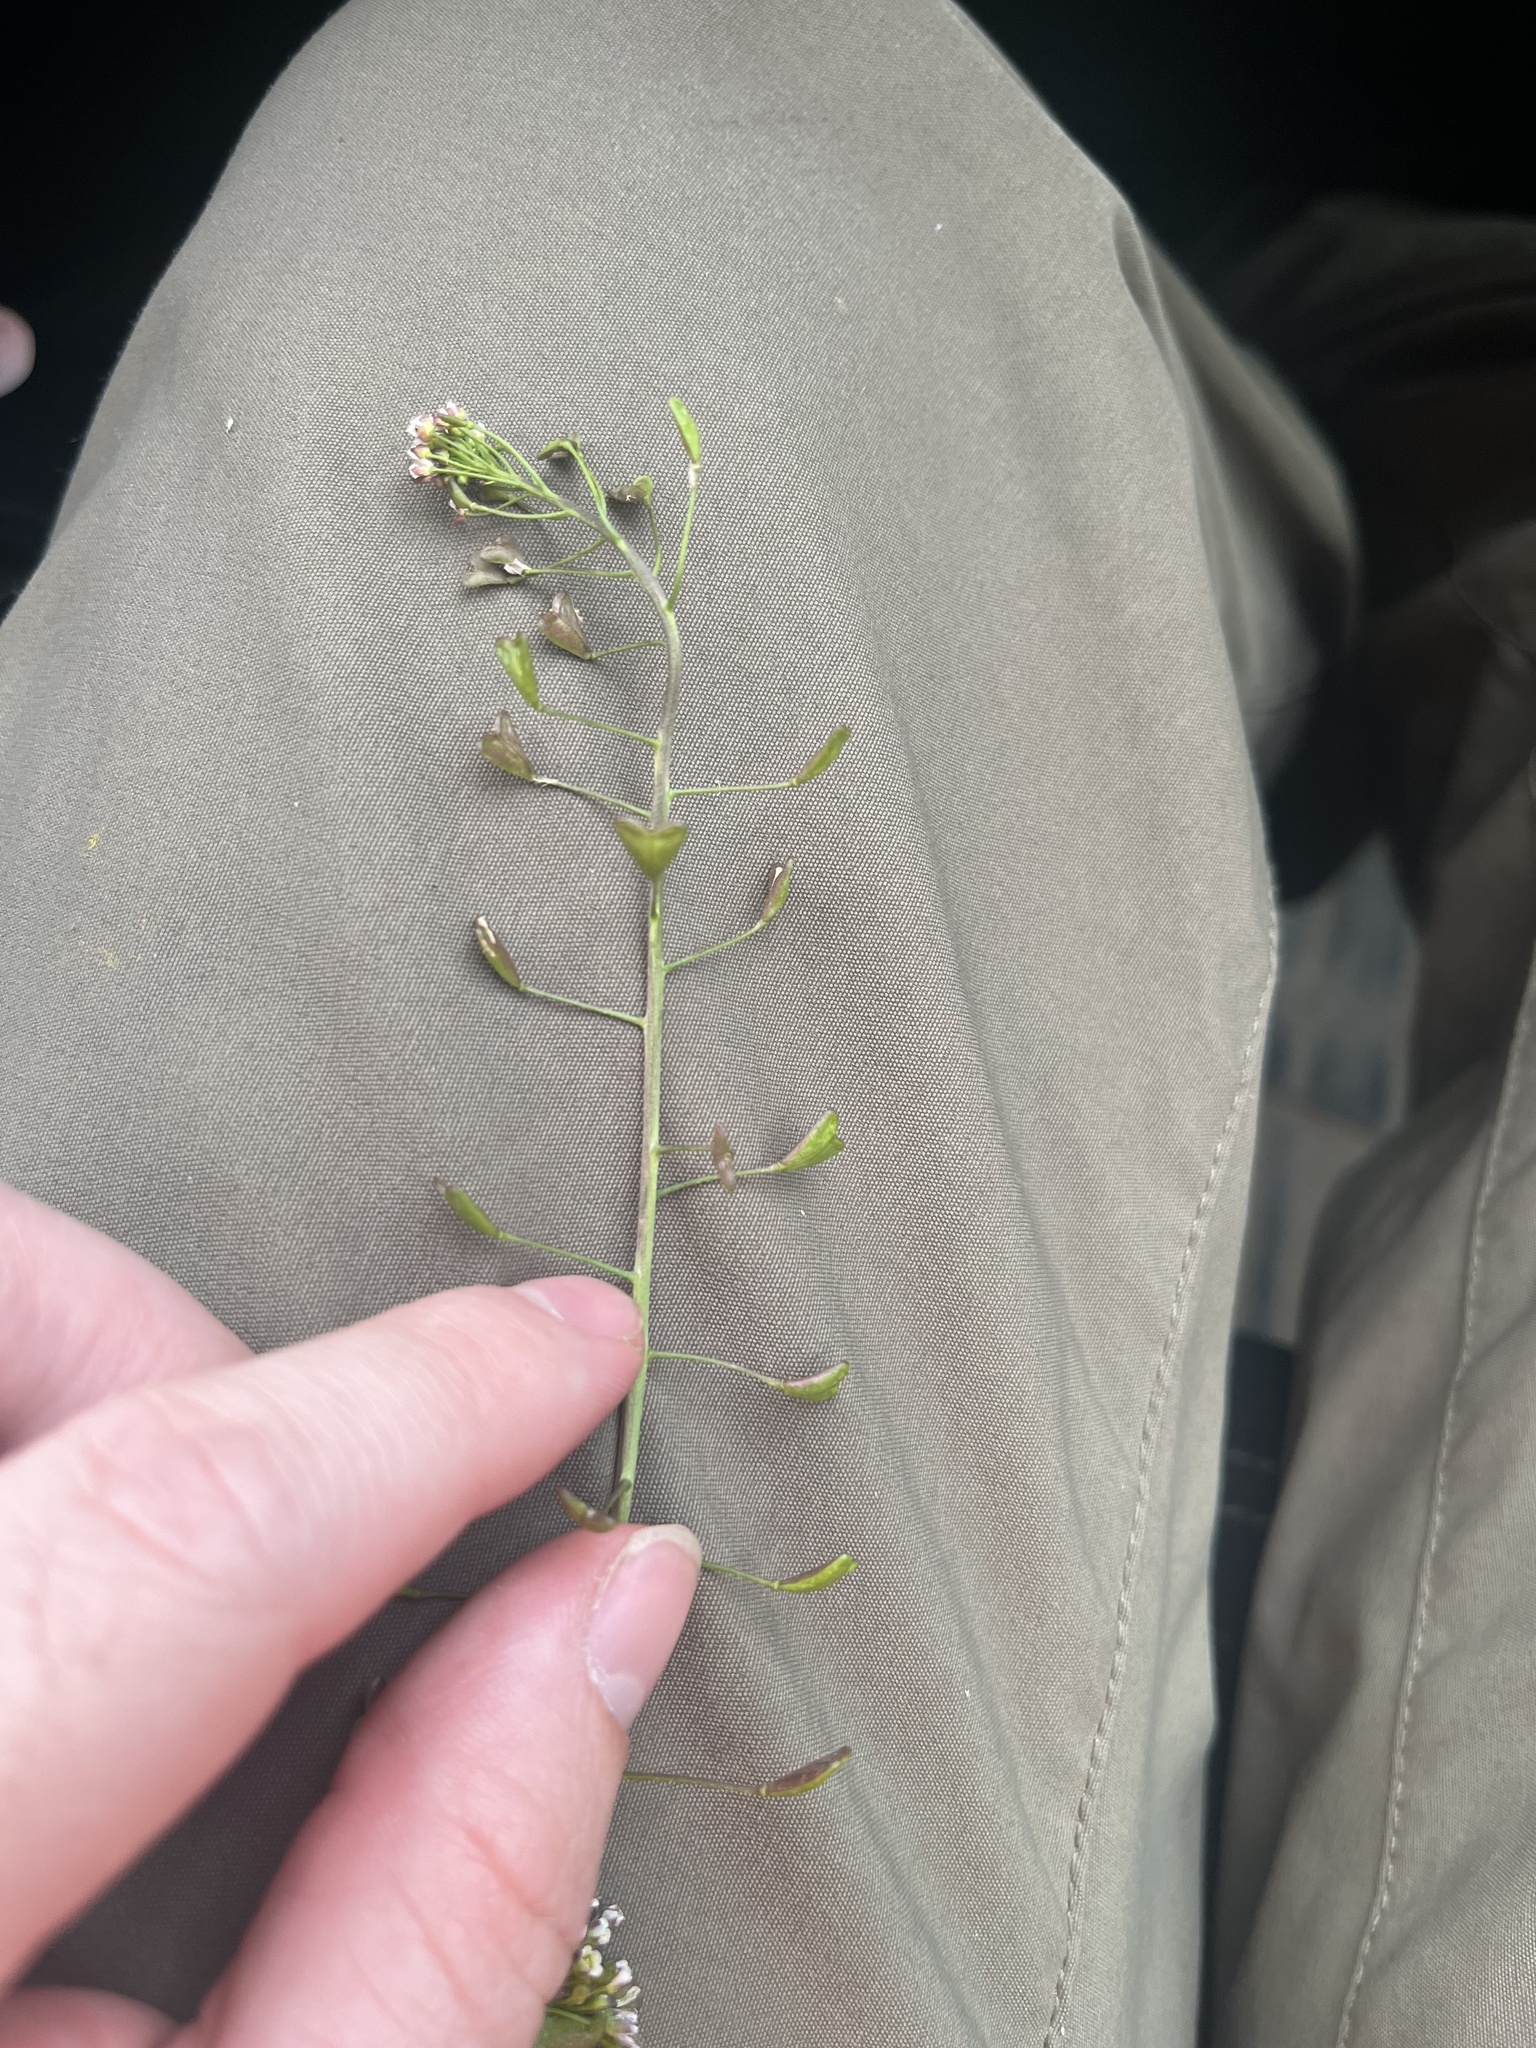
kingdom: Plantae
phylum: Tracheophyta
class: Magnoliopsida
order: Brassicales
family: Brassicaceae
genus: Capsella
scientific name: Capsella bursa-pastoris
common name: Shepherd's purse
